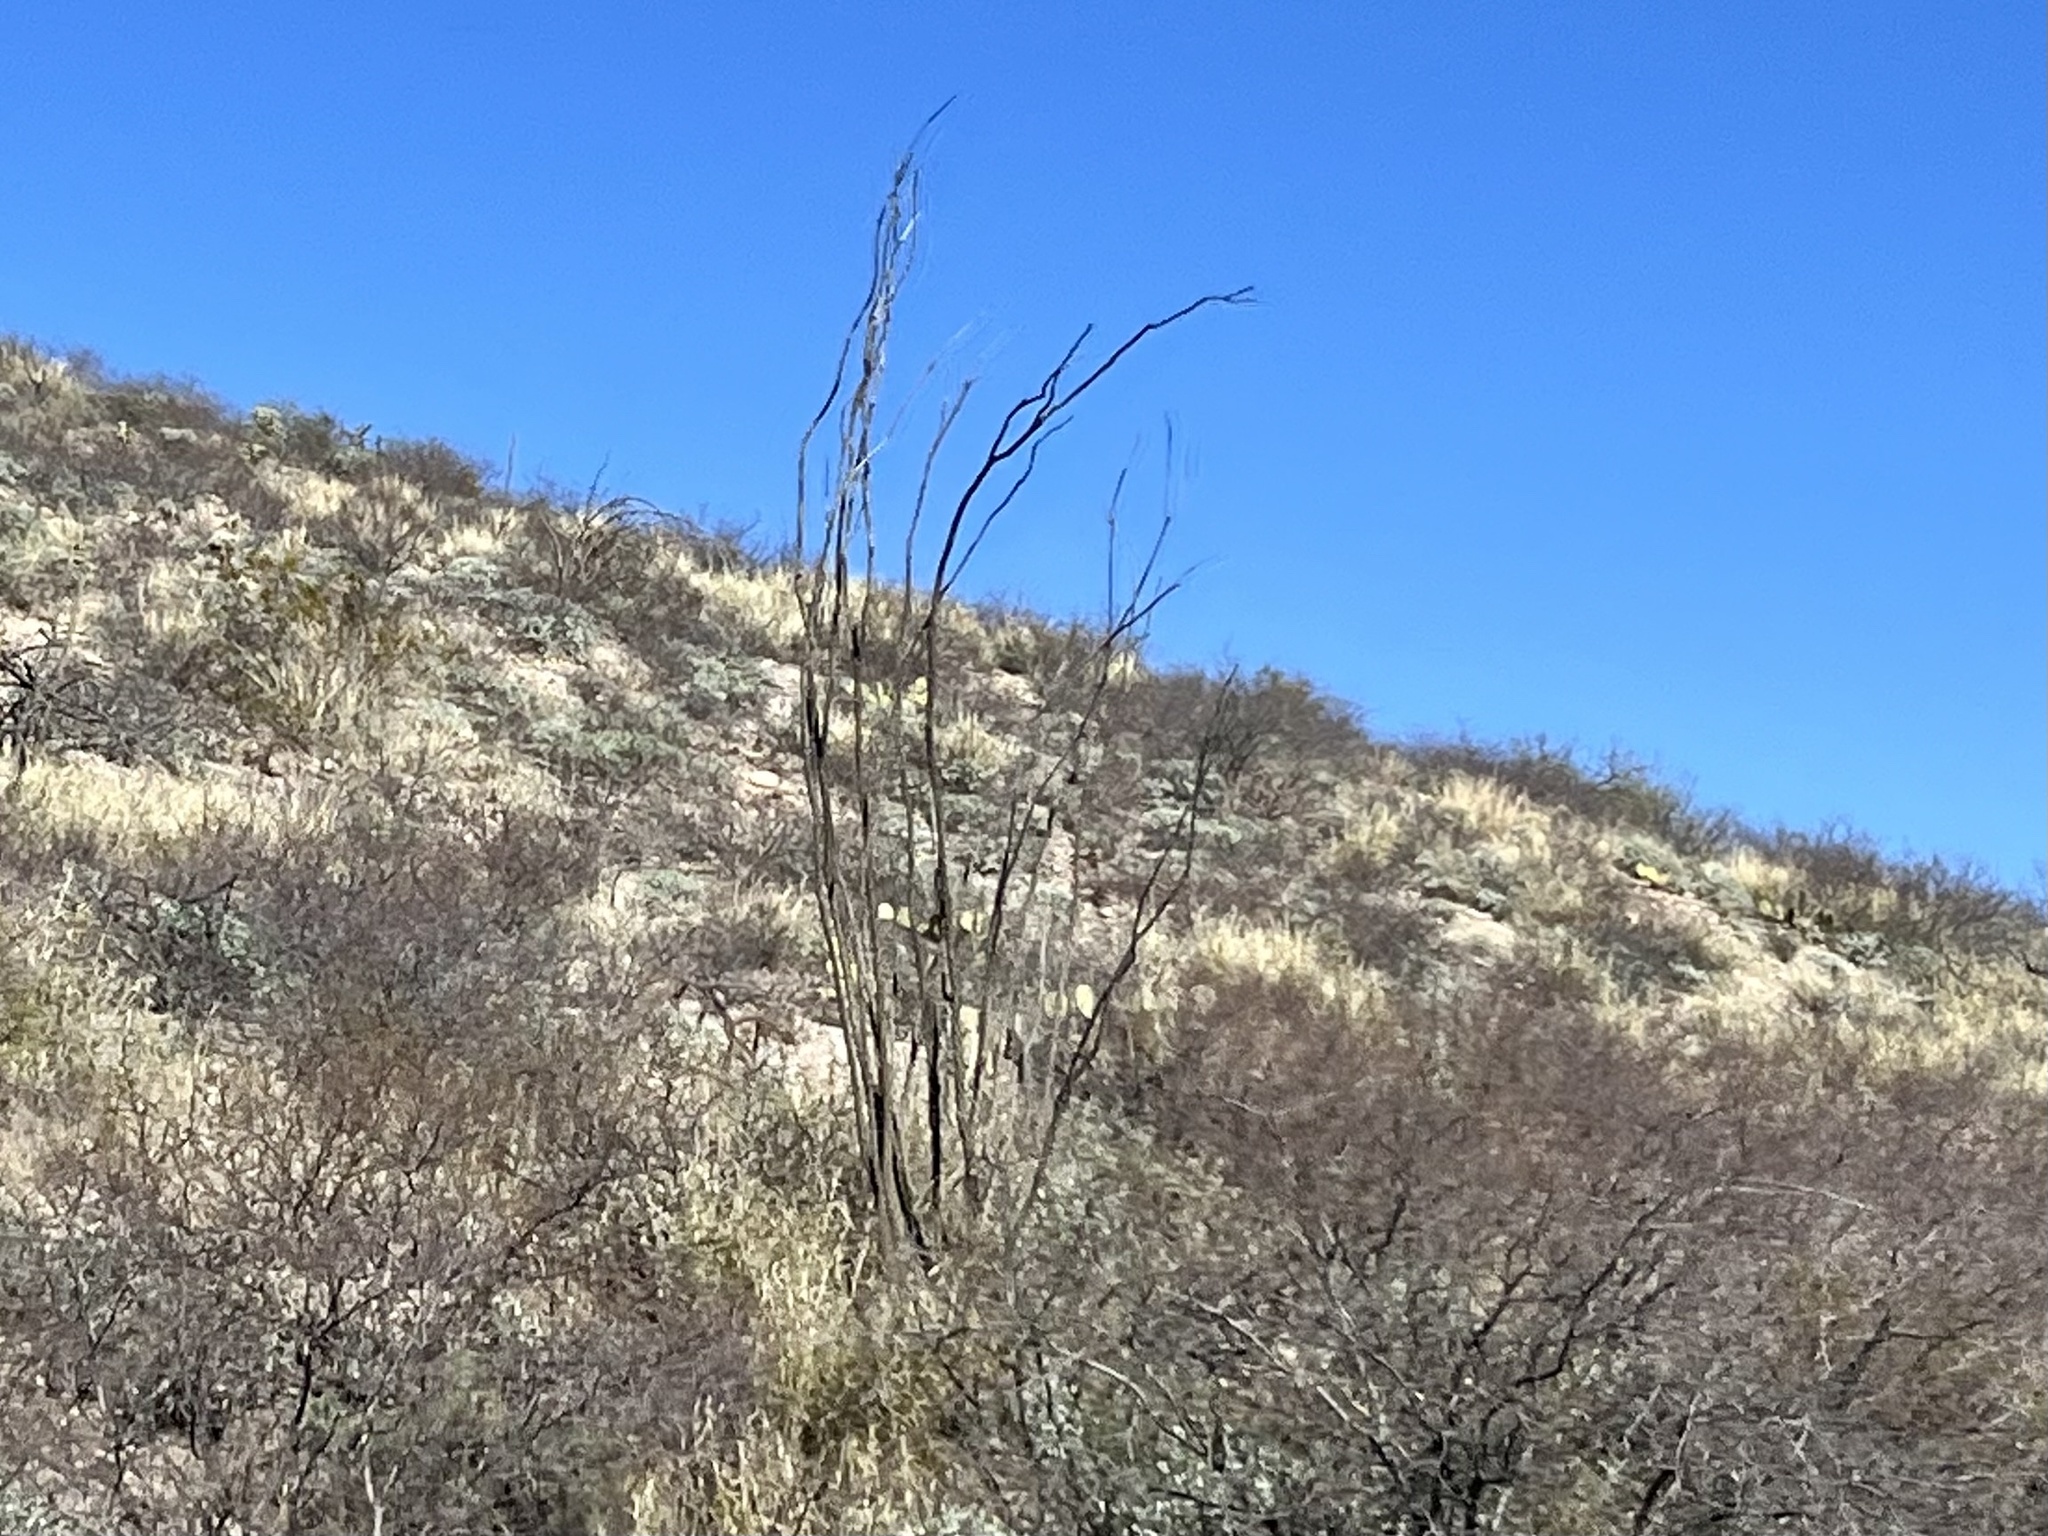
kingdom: Plantae
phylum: Tracheophyta
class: Magnoliopsida
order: Ericales
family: Fouquieriaceae
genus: Fouquieria
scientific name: Fouquieria splendens
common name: Vine-cactus
